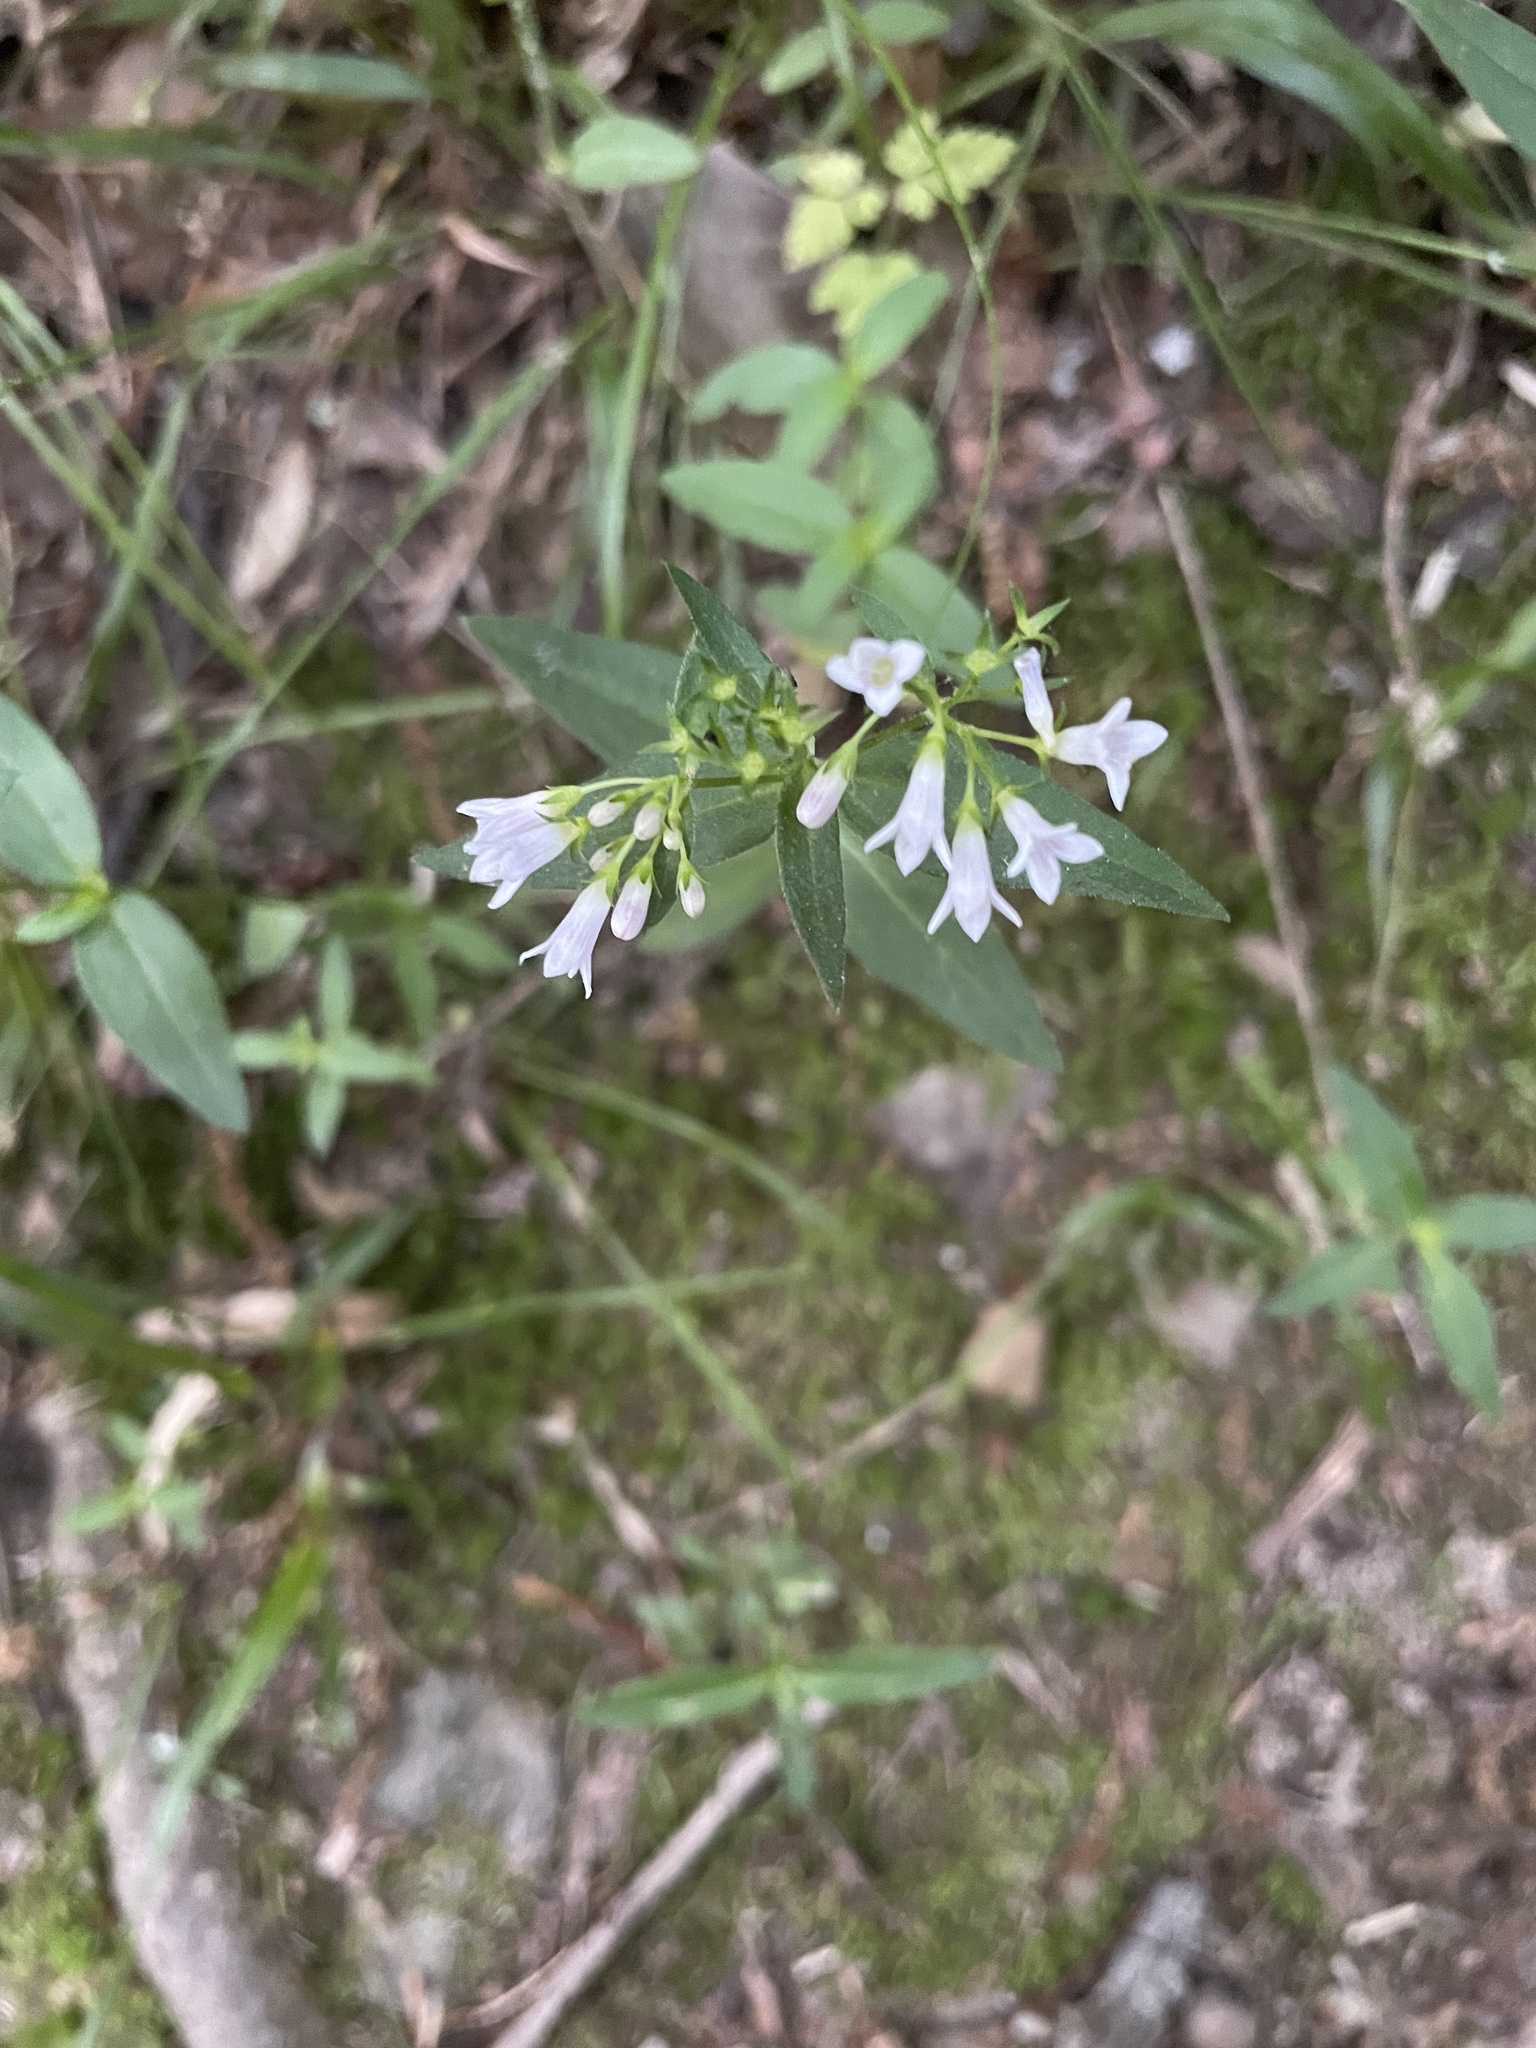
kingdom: Plantae
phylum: Tracheophyta
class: Magnoliopsida
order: Gentianales
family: Rubiaceae
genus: Houstonia
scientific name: Houstonia purpurea
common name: Summer bluet
